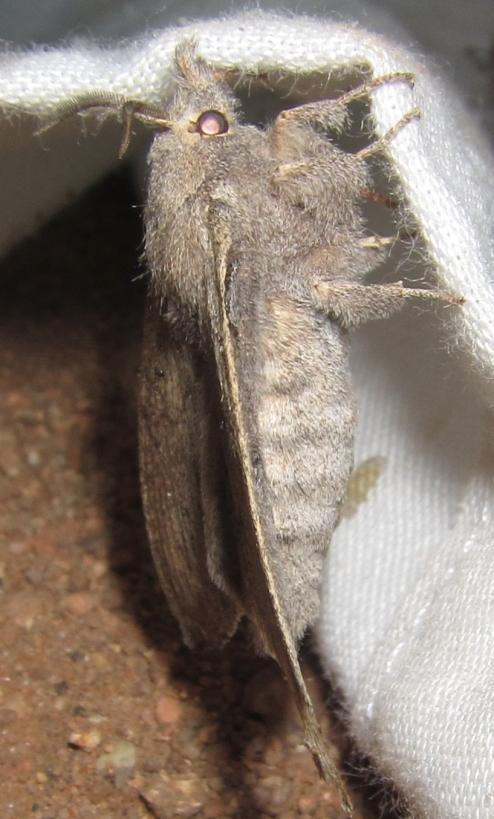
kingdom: Animalia
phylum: Arthropoda
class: Insecta
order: Lepidoptera
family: Lasiocampidae
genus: Rhinobombyx
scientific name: Rhinobombyx cuneata
